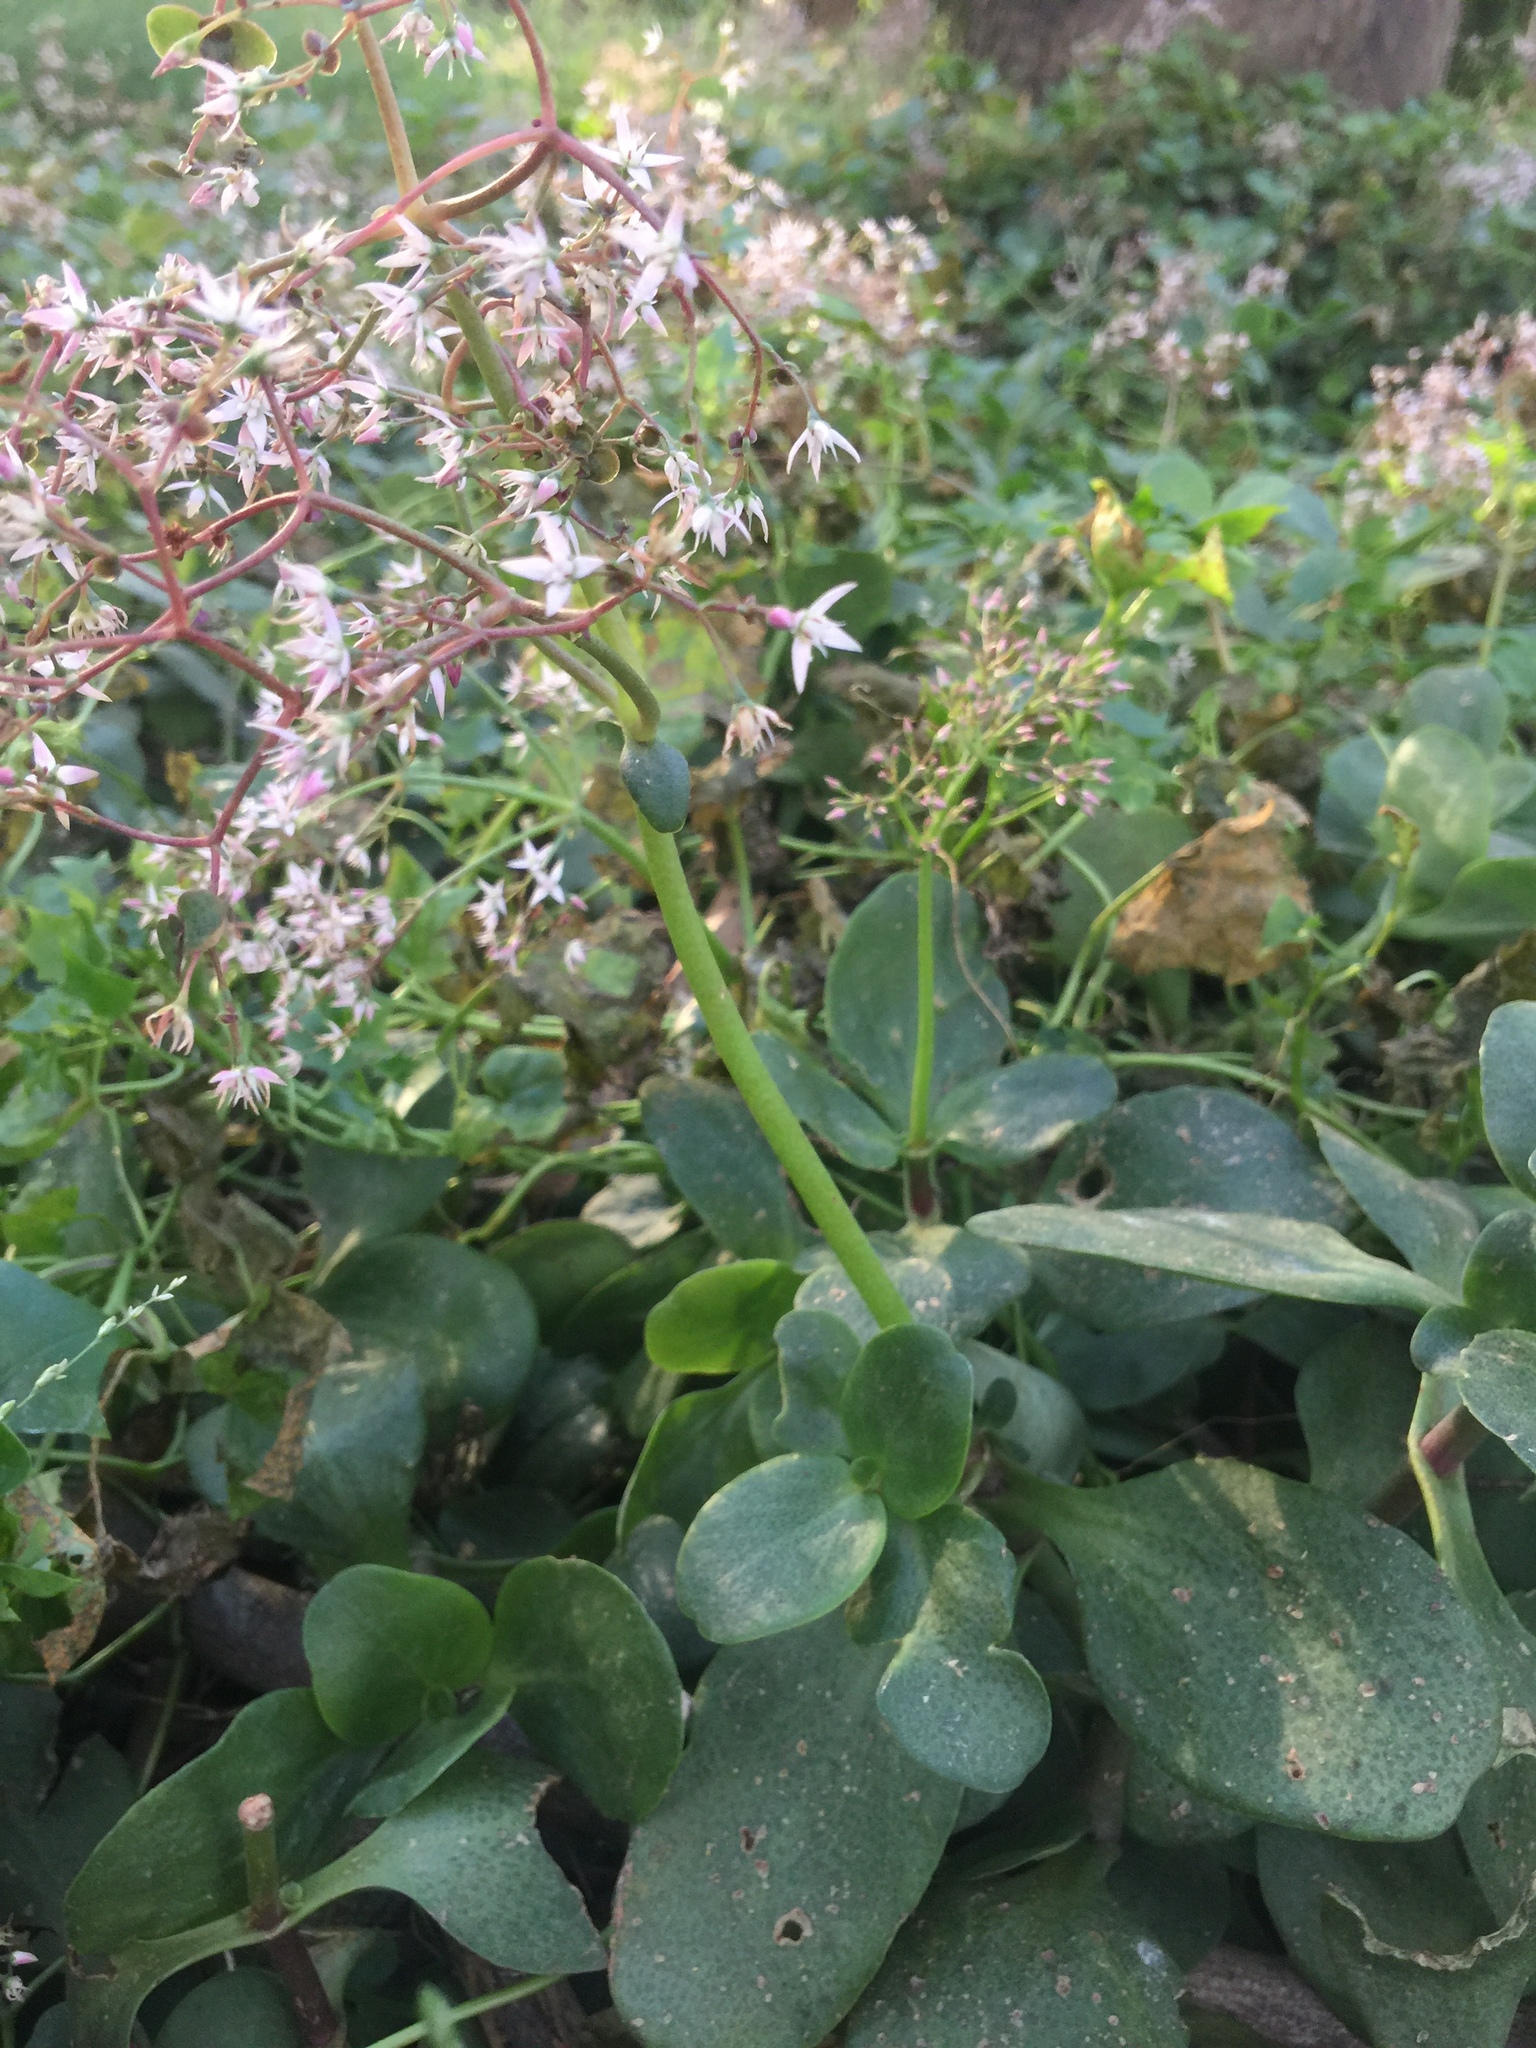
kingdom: Plantae
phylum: Tracheophyta
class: Magnoliopsida
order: Saxifragales
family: Crassulaceae
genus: Crassula
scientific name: Crassula multicava
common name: Cape province pygmyweed
